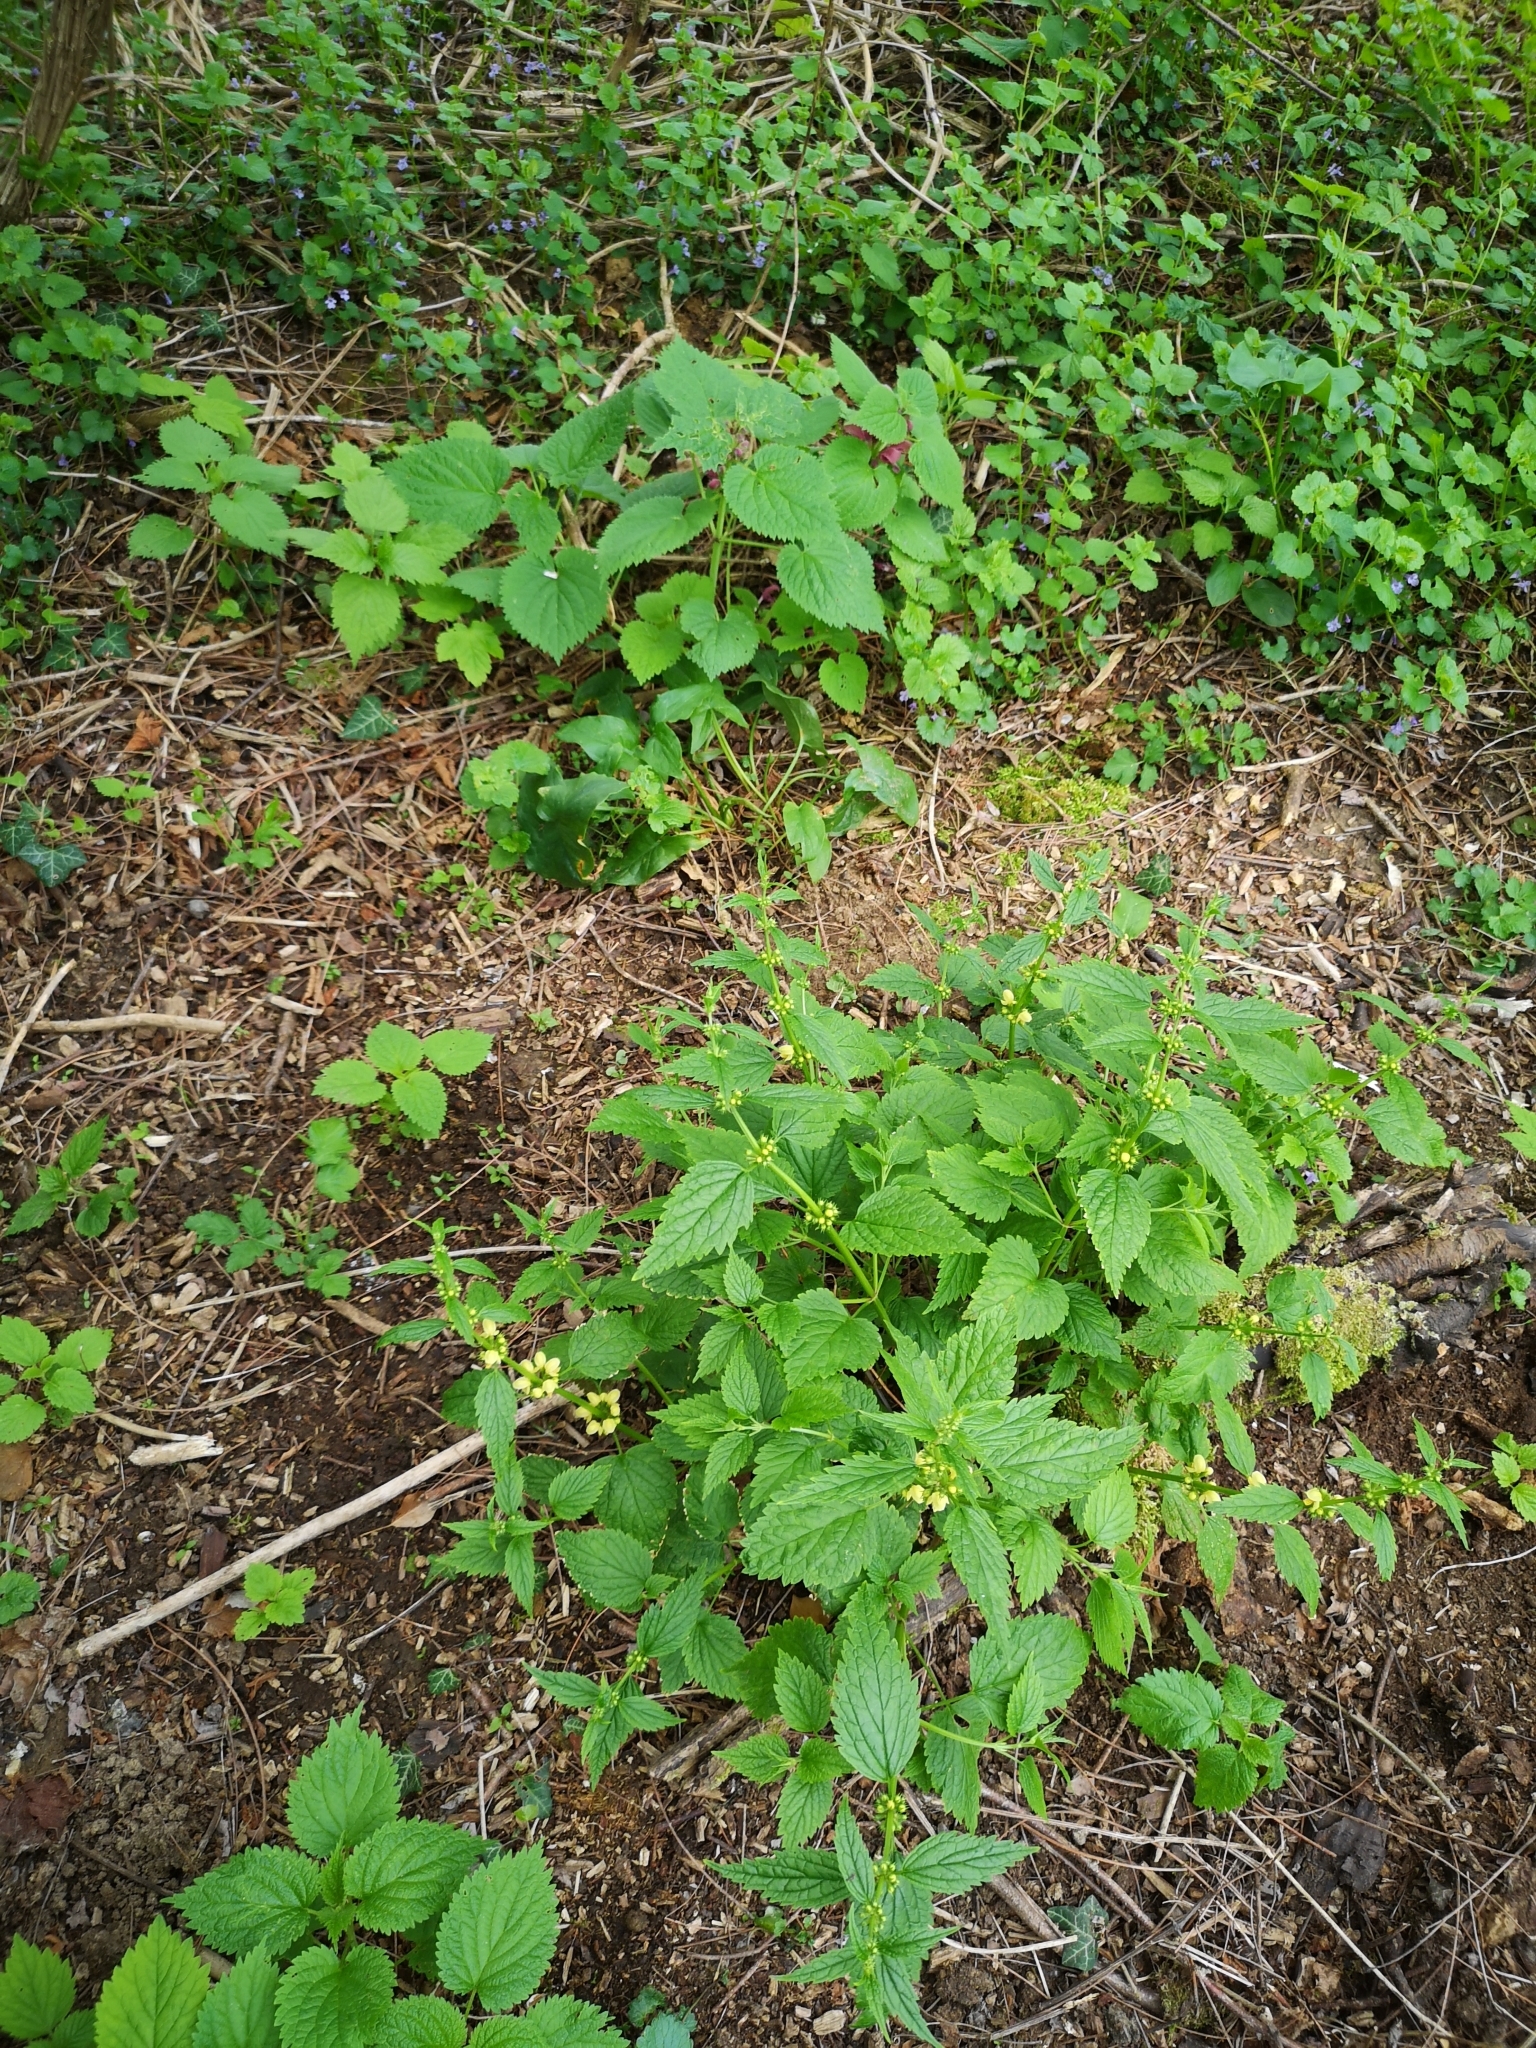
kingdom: Plantae
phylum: Tracheophyta
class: Magnoliopsida
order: Lamiales
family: Lamiaceae
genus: Lamium
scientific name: Lamium galeobdolon
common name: Yellow archangel
